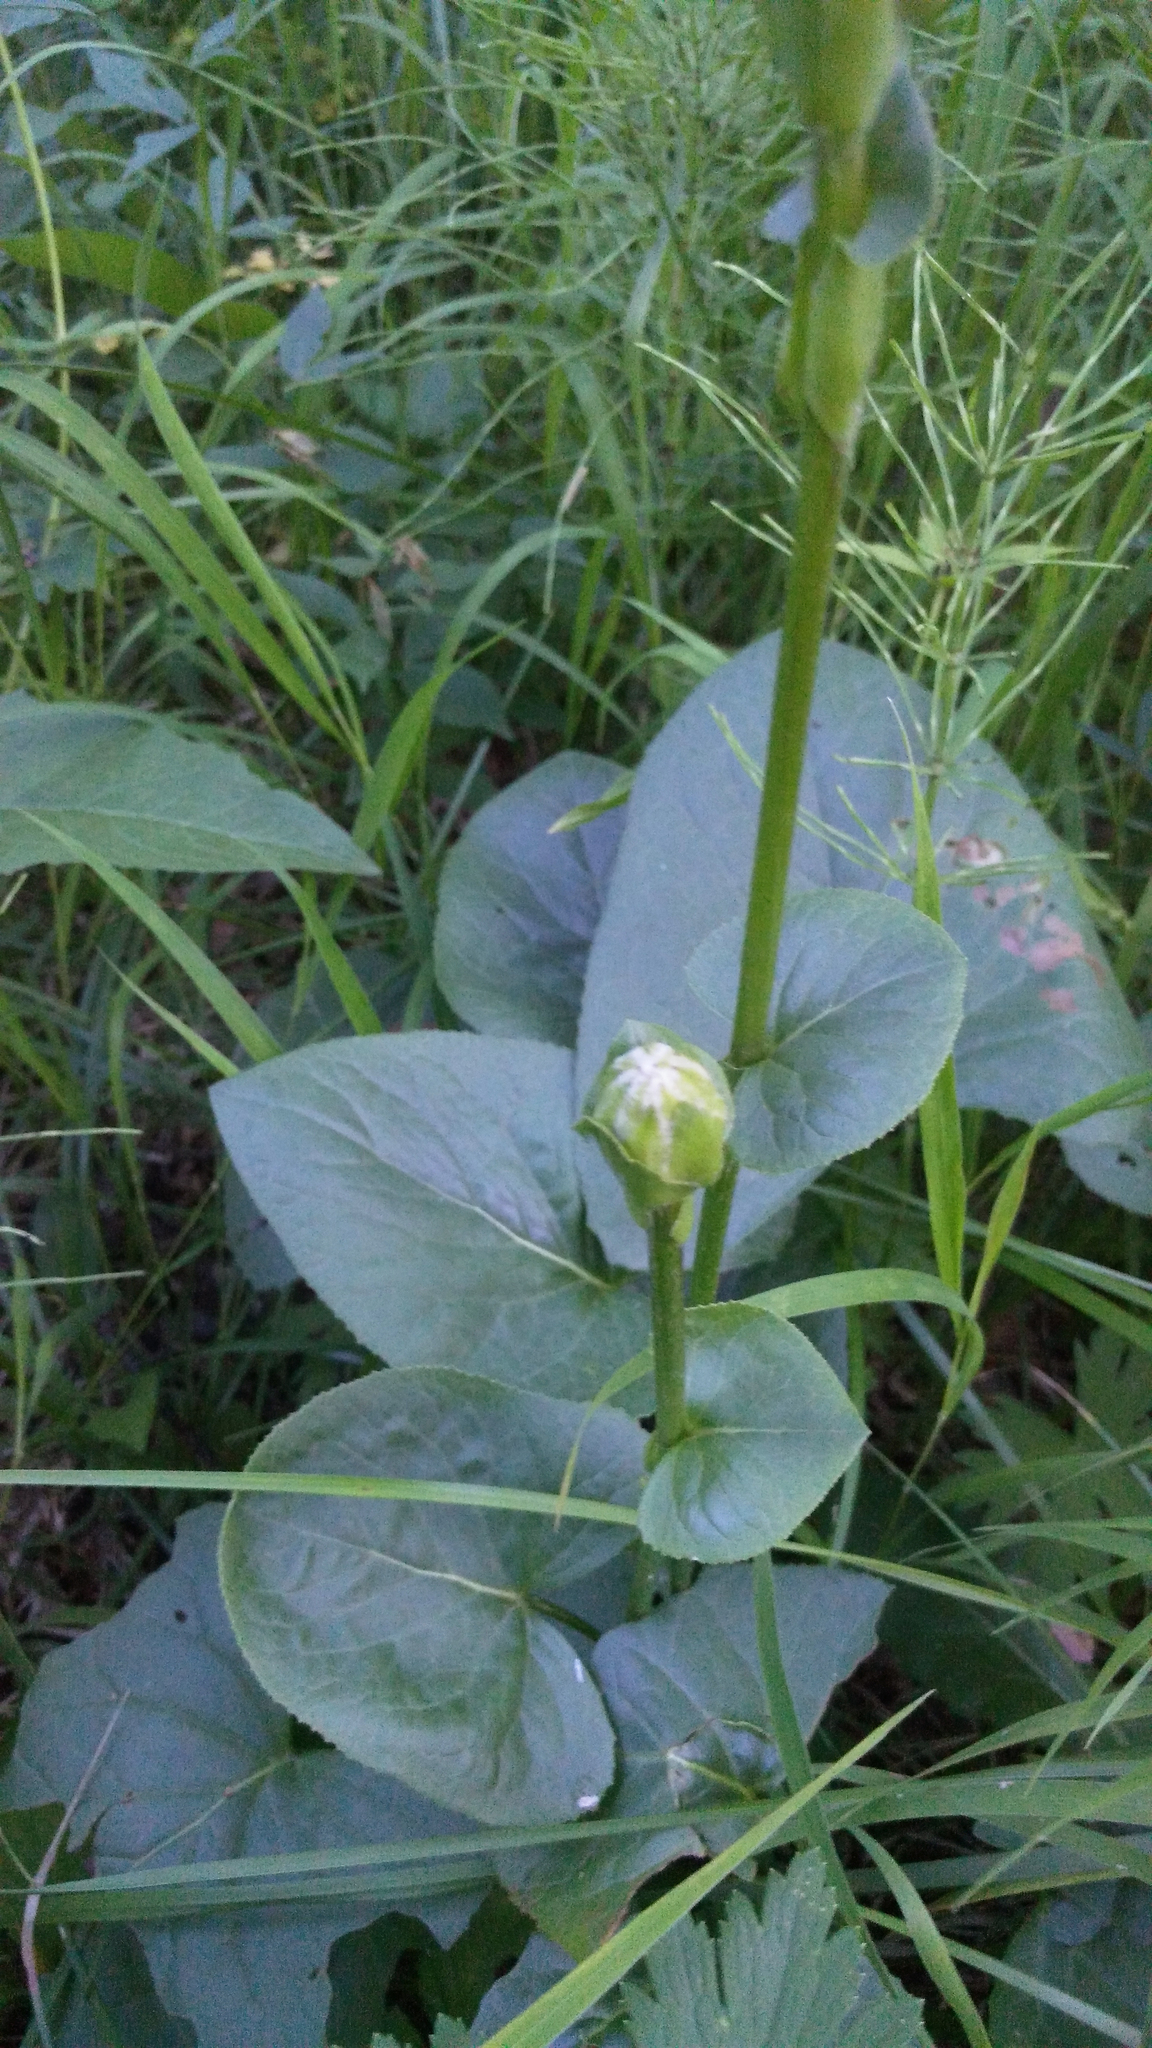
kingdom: Plantae
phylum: Tracheophyta
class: Magnoliopsida
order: Asterales
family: Asteraceae
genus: Ligularia
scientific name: Ligularia sibirica
